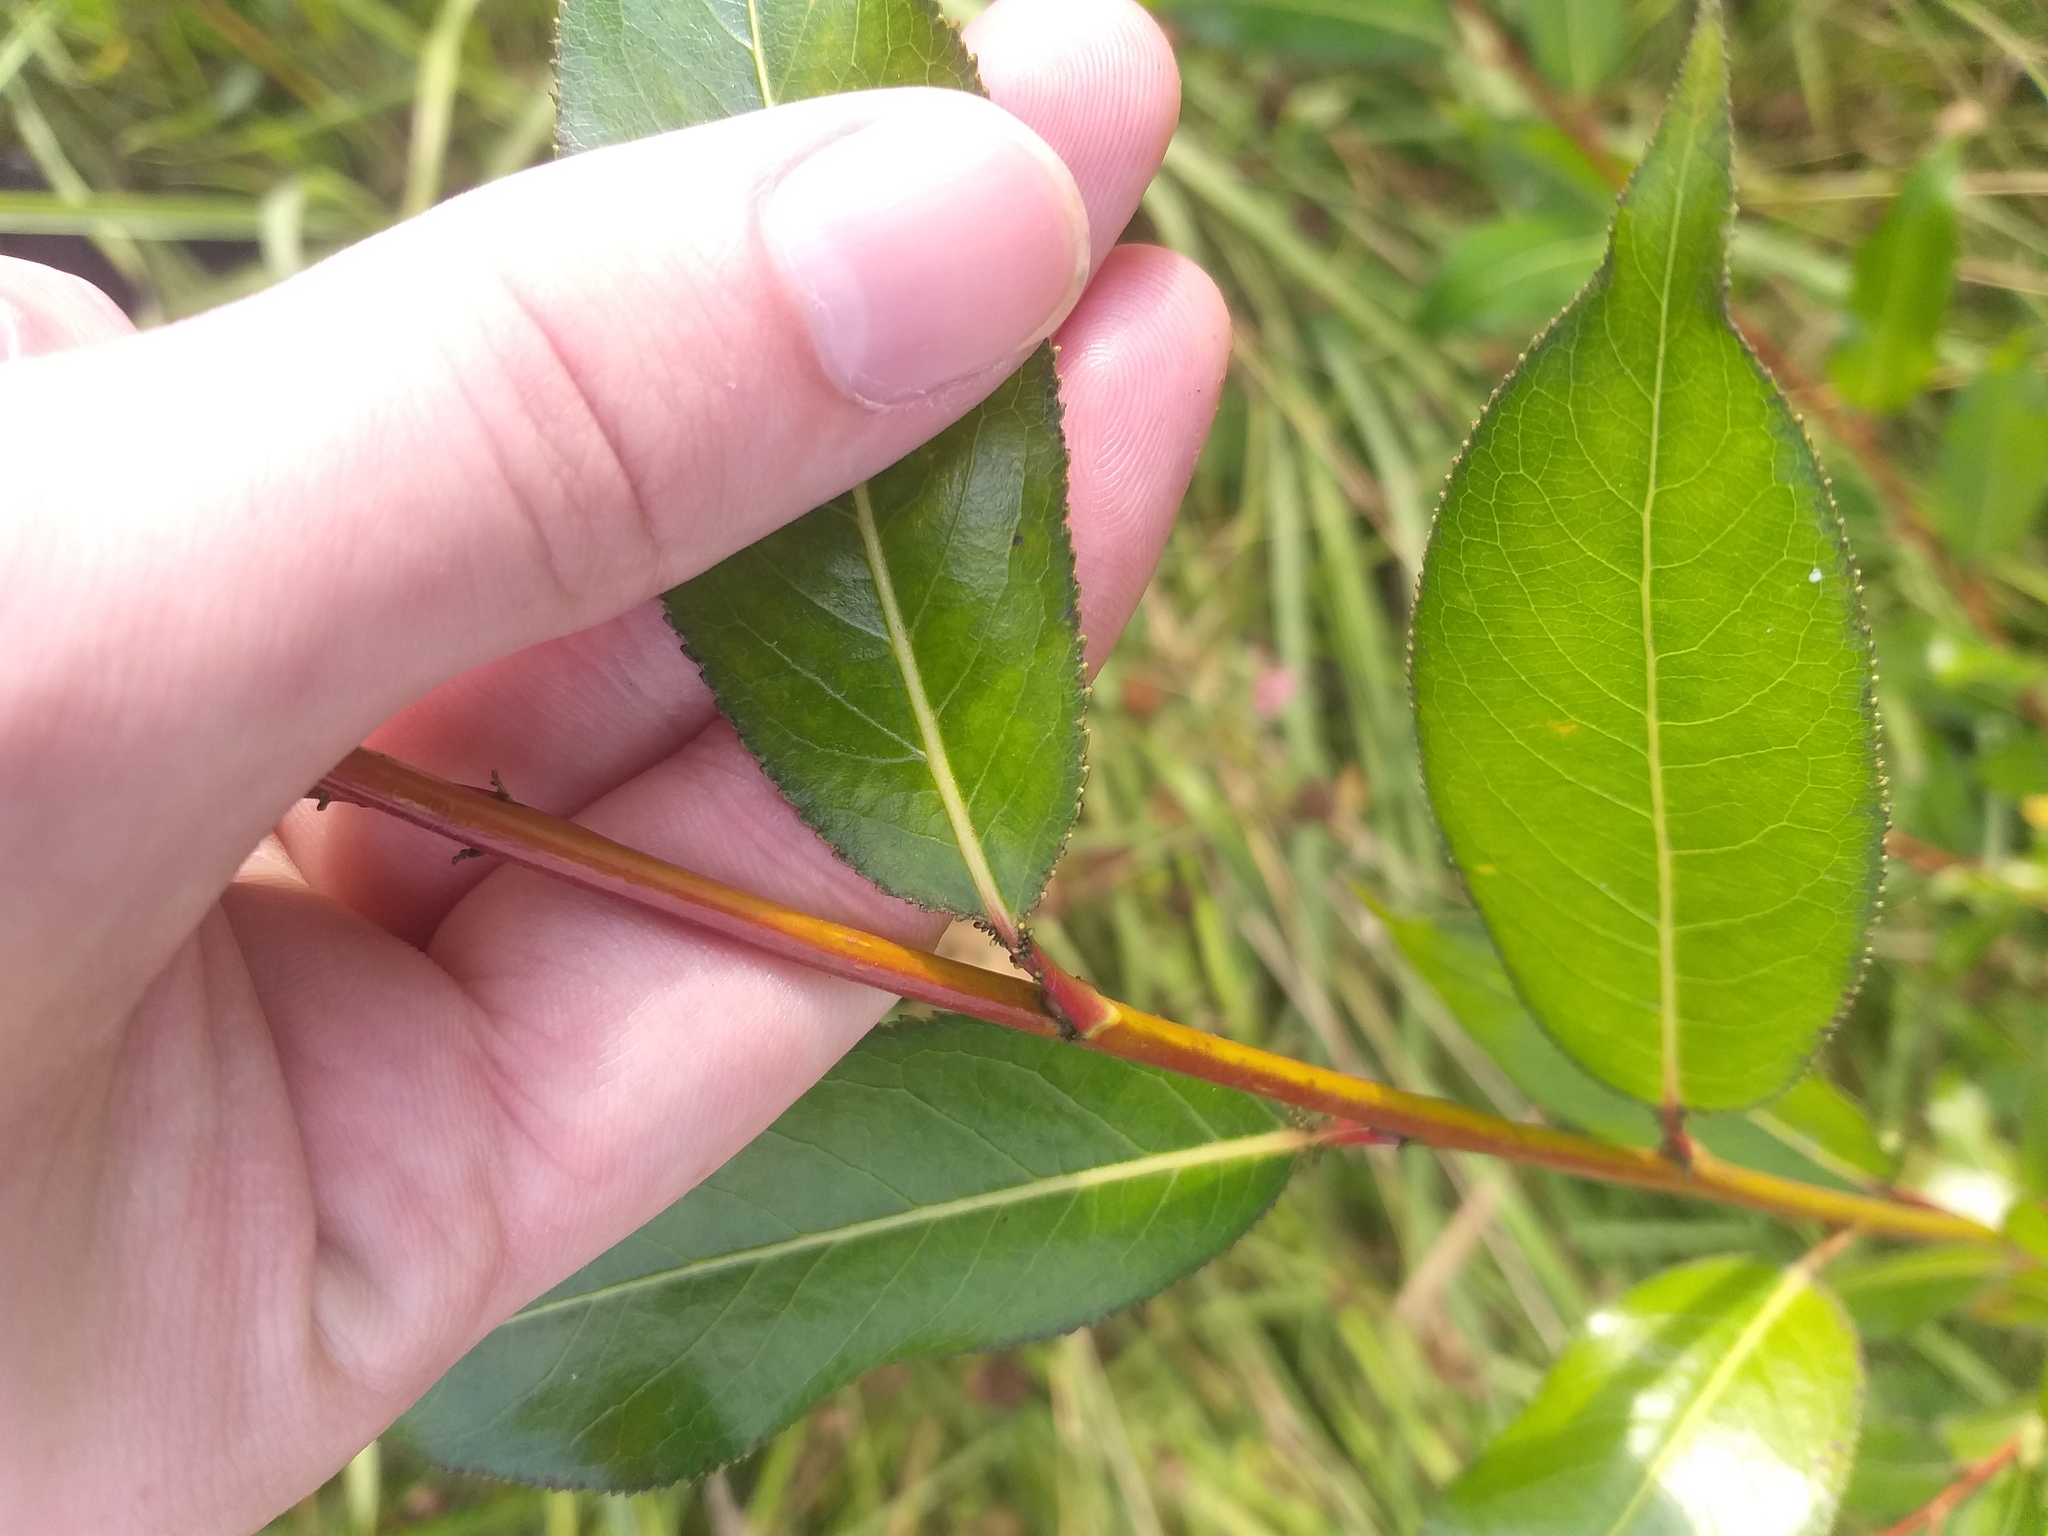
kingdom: Plantae
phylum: Tracheophyta
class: Magnoliopsida
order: Malpighiales
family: Salicaceae
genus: Salix
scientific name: Salix pentandra
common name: Bay willow
